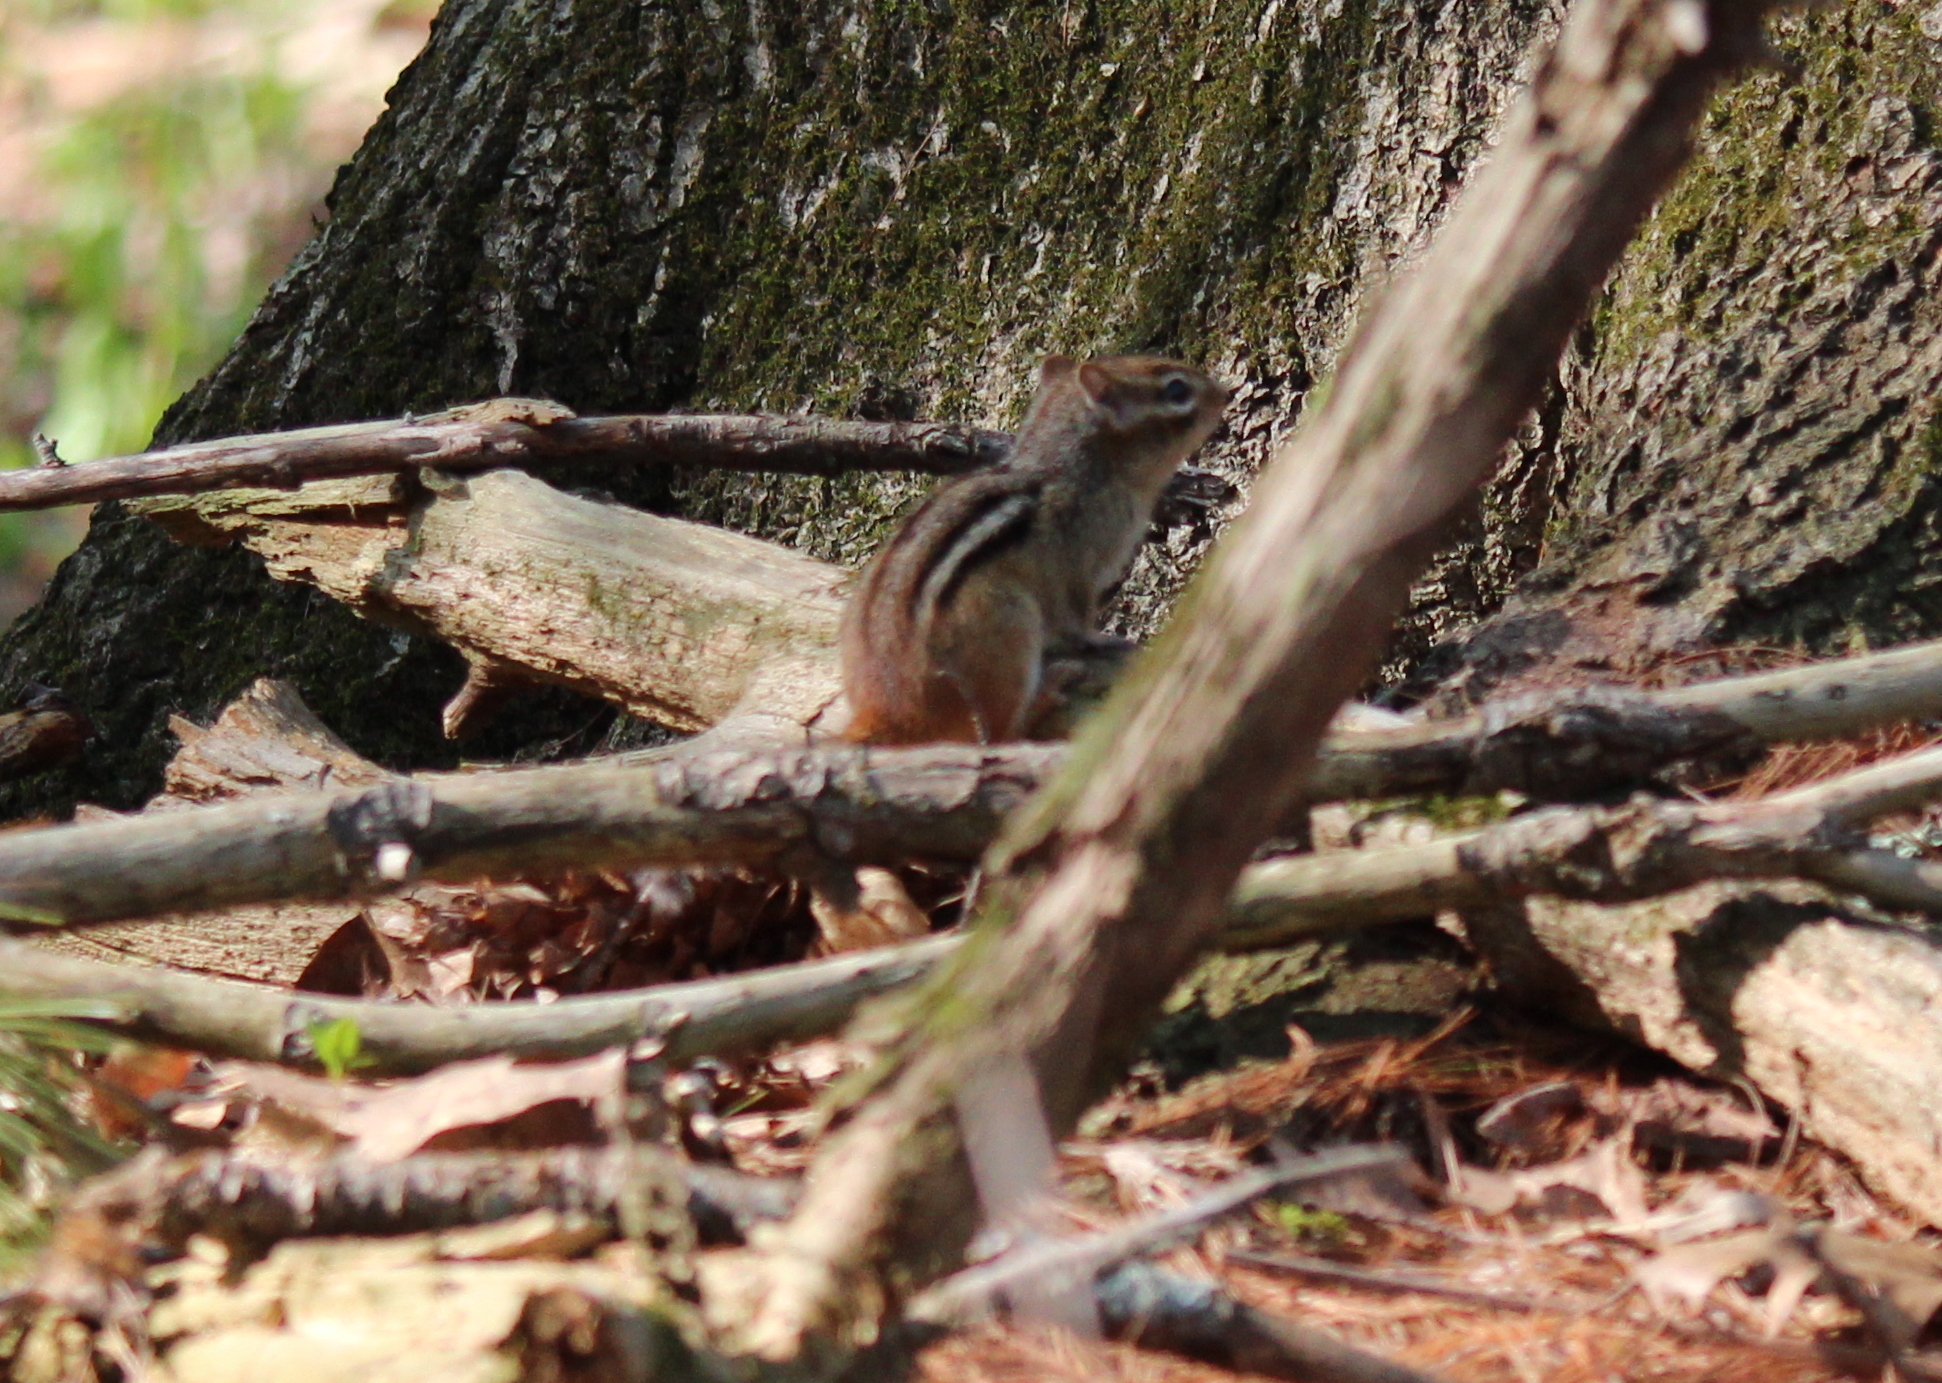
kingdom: Animalia
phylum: Chordata
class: Mammalia
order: Rodentia
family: Sciuridae
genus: Tamias
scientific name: Tamias striatus
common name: Eastern chipmunk
